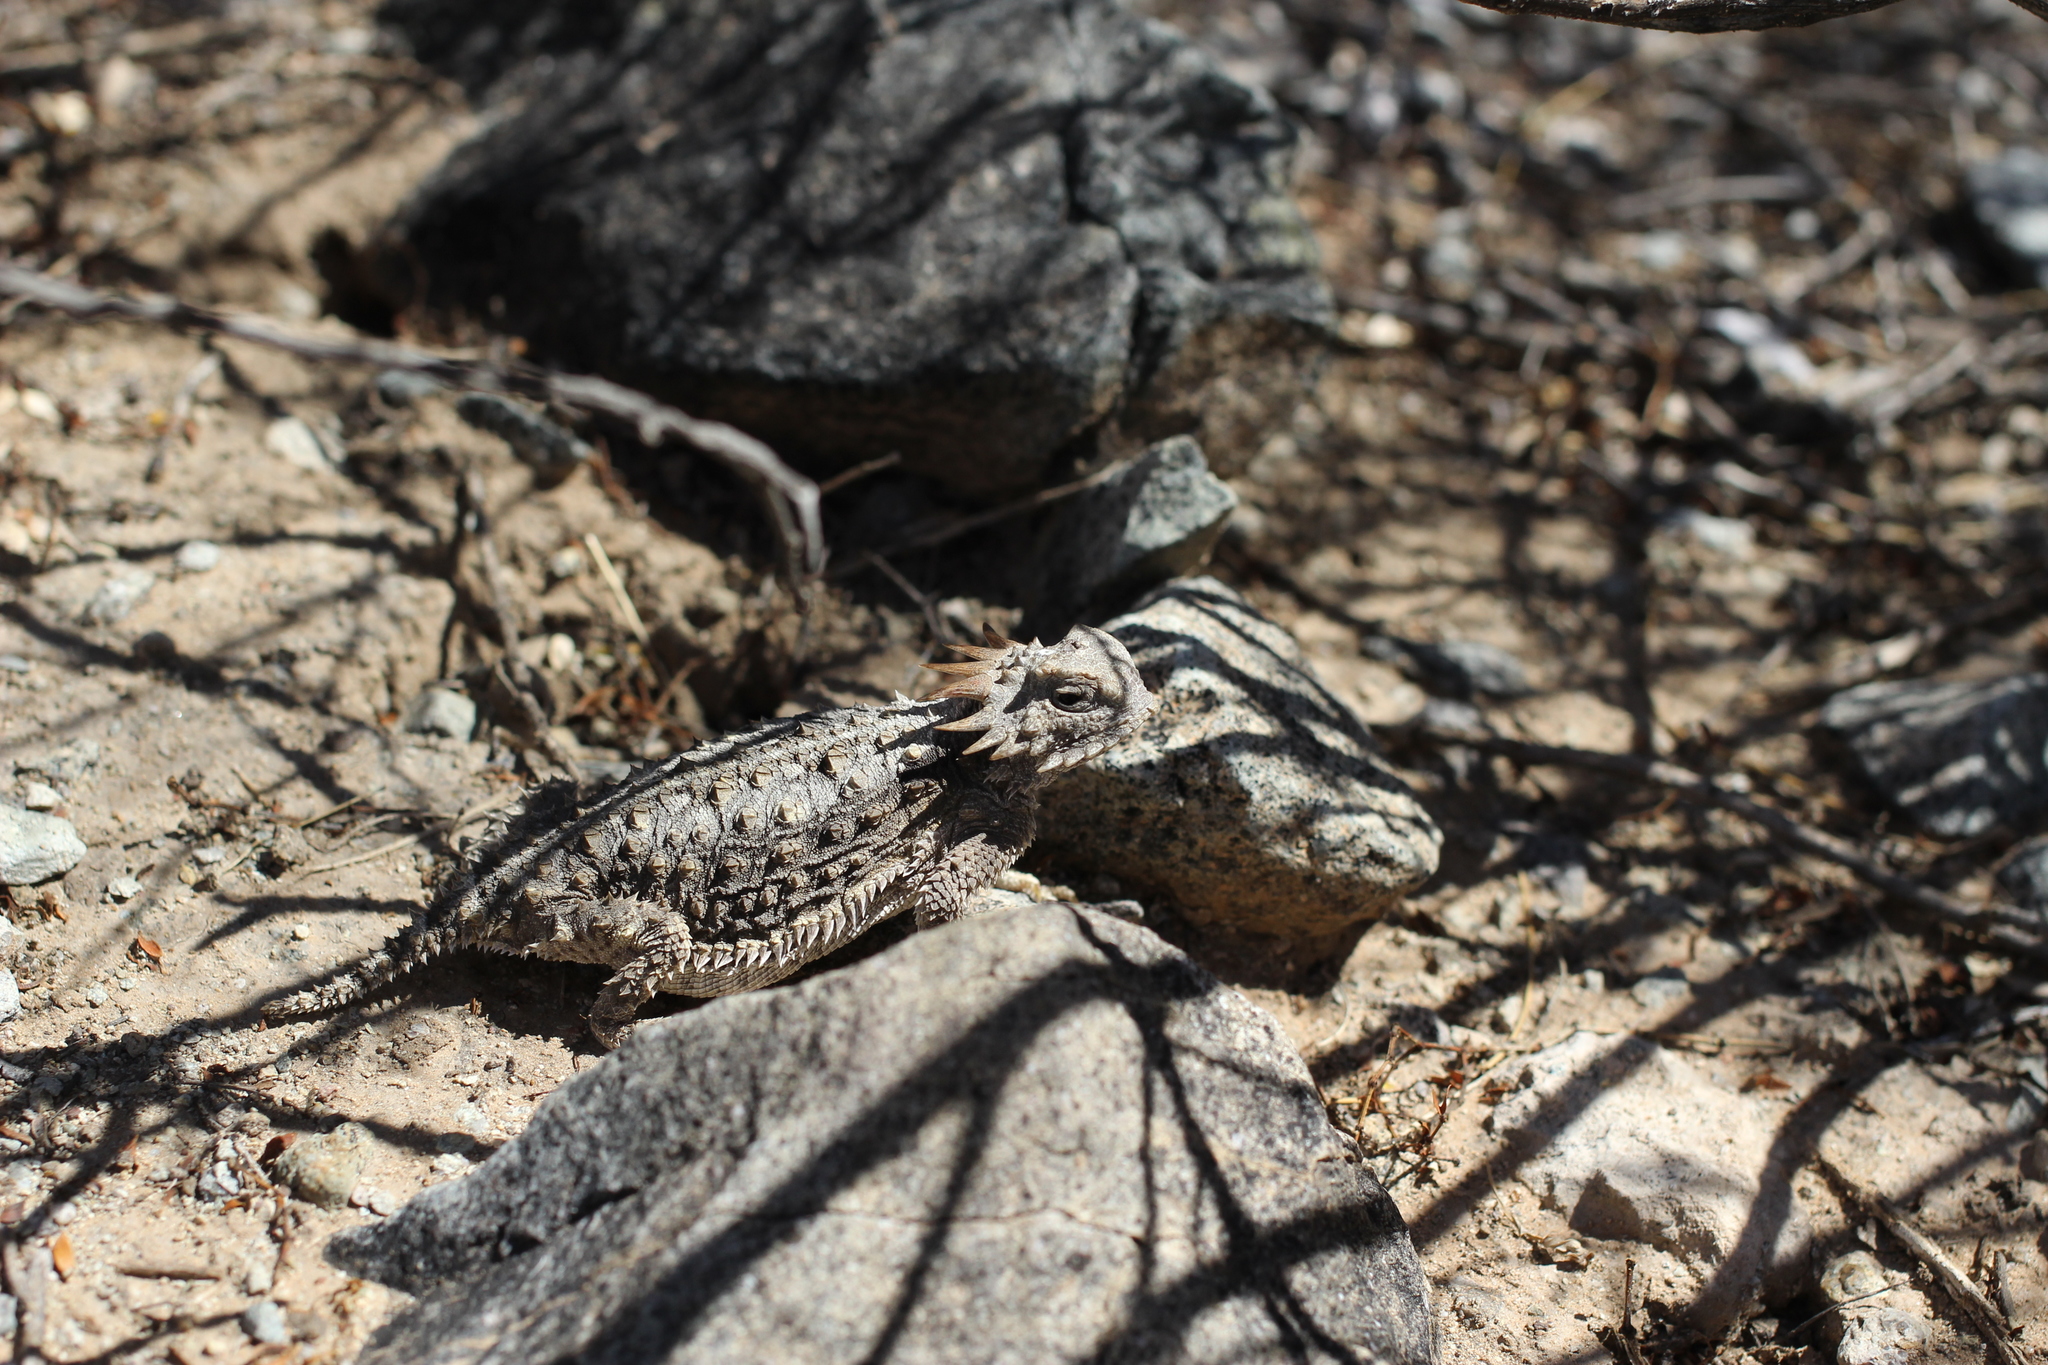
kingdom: Animalia
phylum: Chordata
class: Squamata
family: Phrynosomatidae
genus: Phrynosoma
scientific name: Phrynosoma solare
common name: Regal horned lizard
